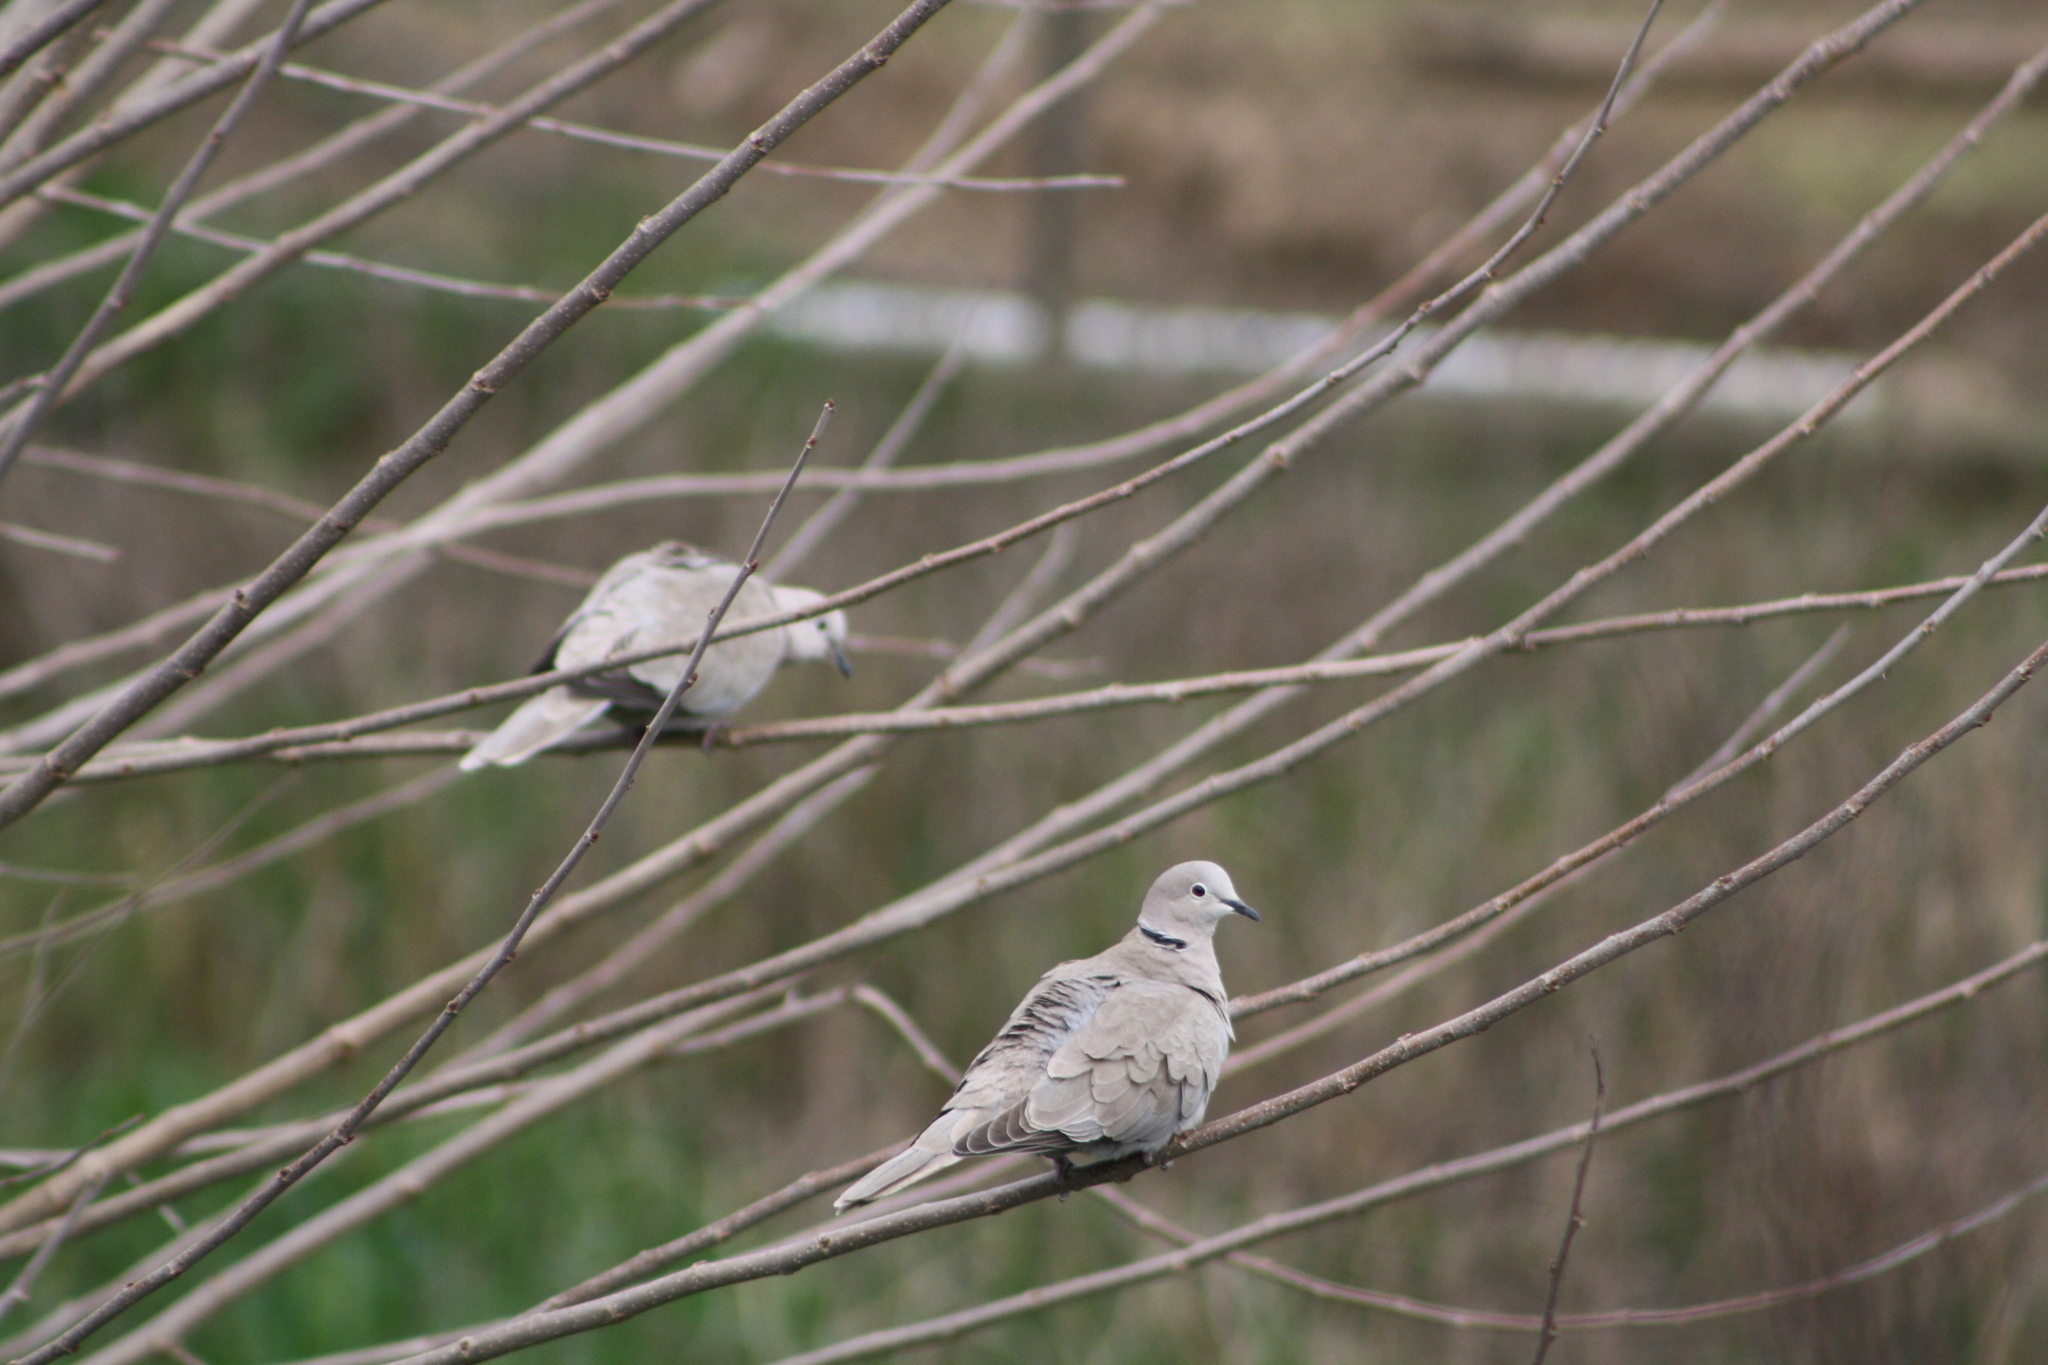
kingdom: Animalia
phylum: Chordata
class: Aves
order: Columbiformes
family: Columbidae
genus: Streptopelia
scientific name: Streptopelia decaocto
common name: Eurasian collared dove
